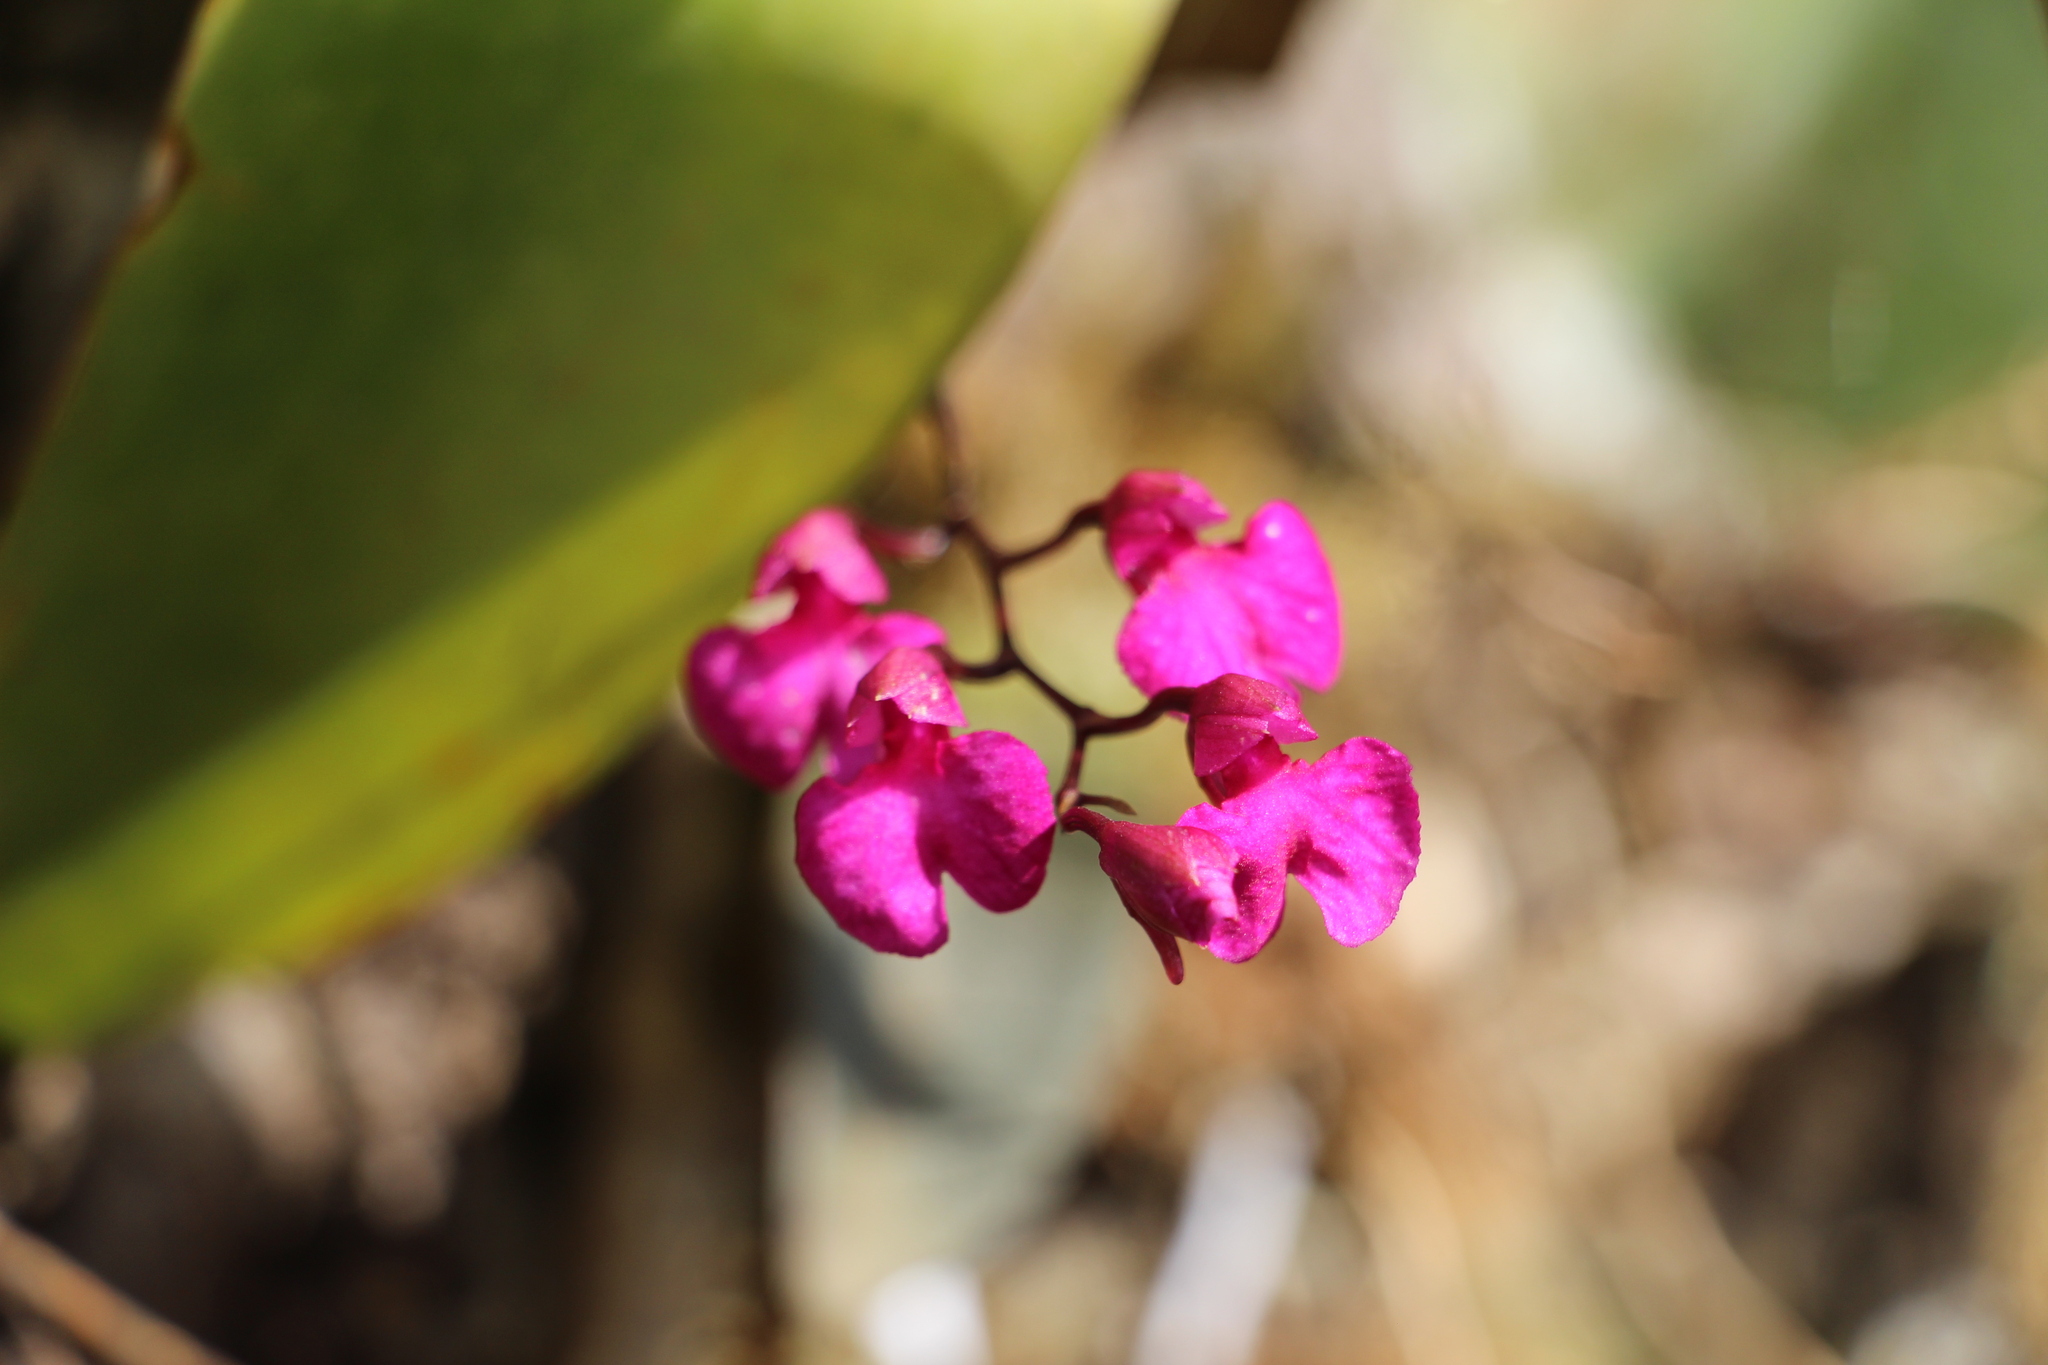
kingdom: Plantae
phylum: Tracheophyta
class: Liliopsida
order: Asparagales
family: Orchidaceae
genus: Comparettia
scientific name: Comparettia falcata
